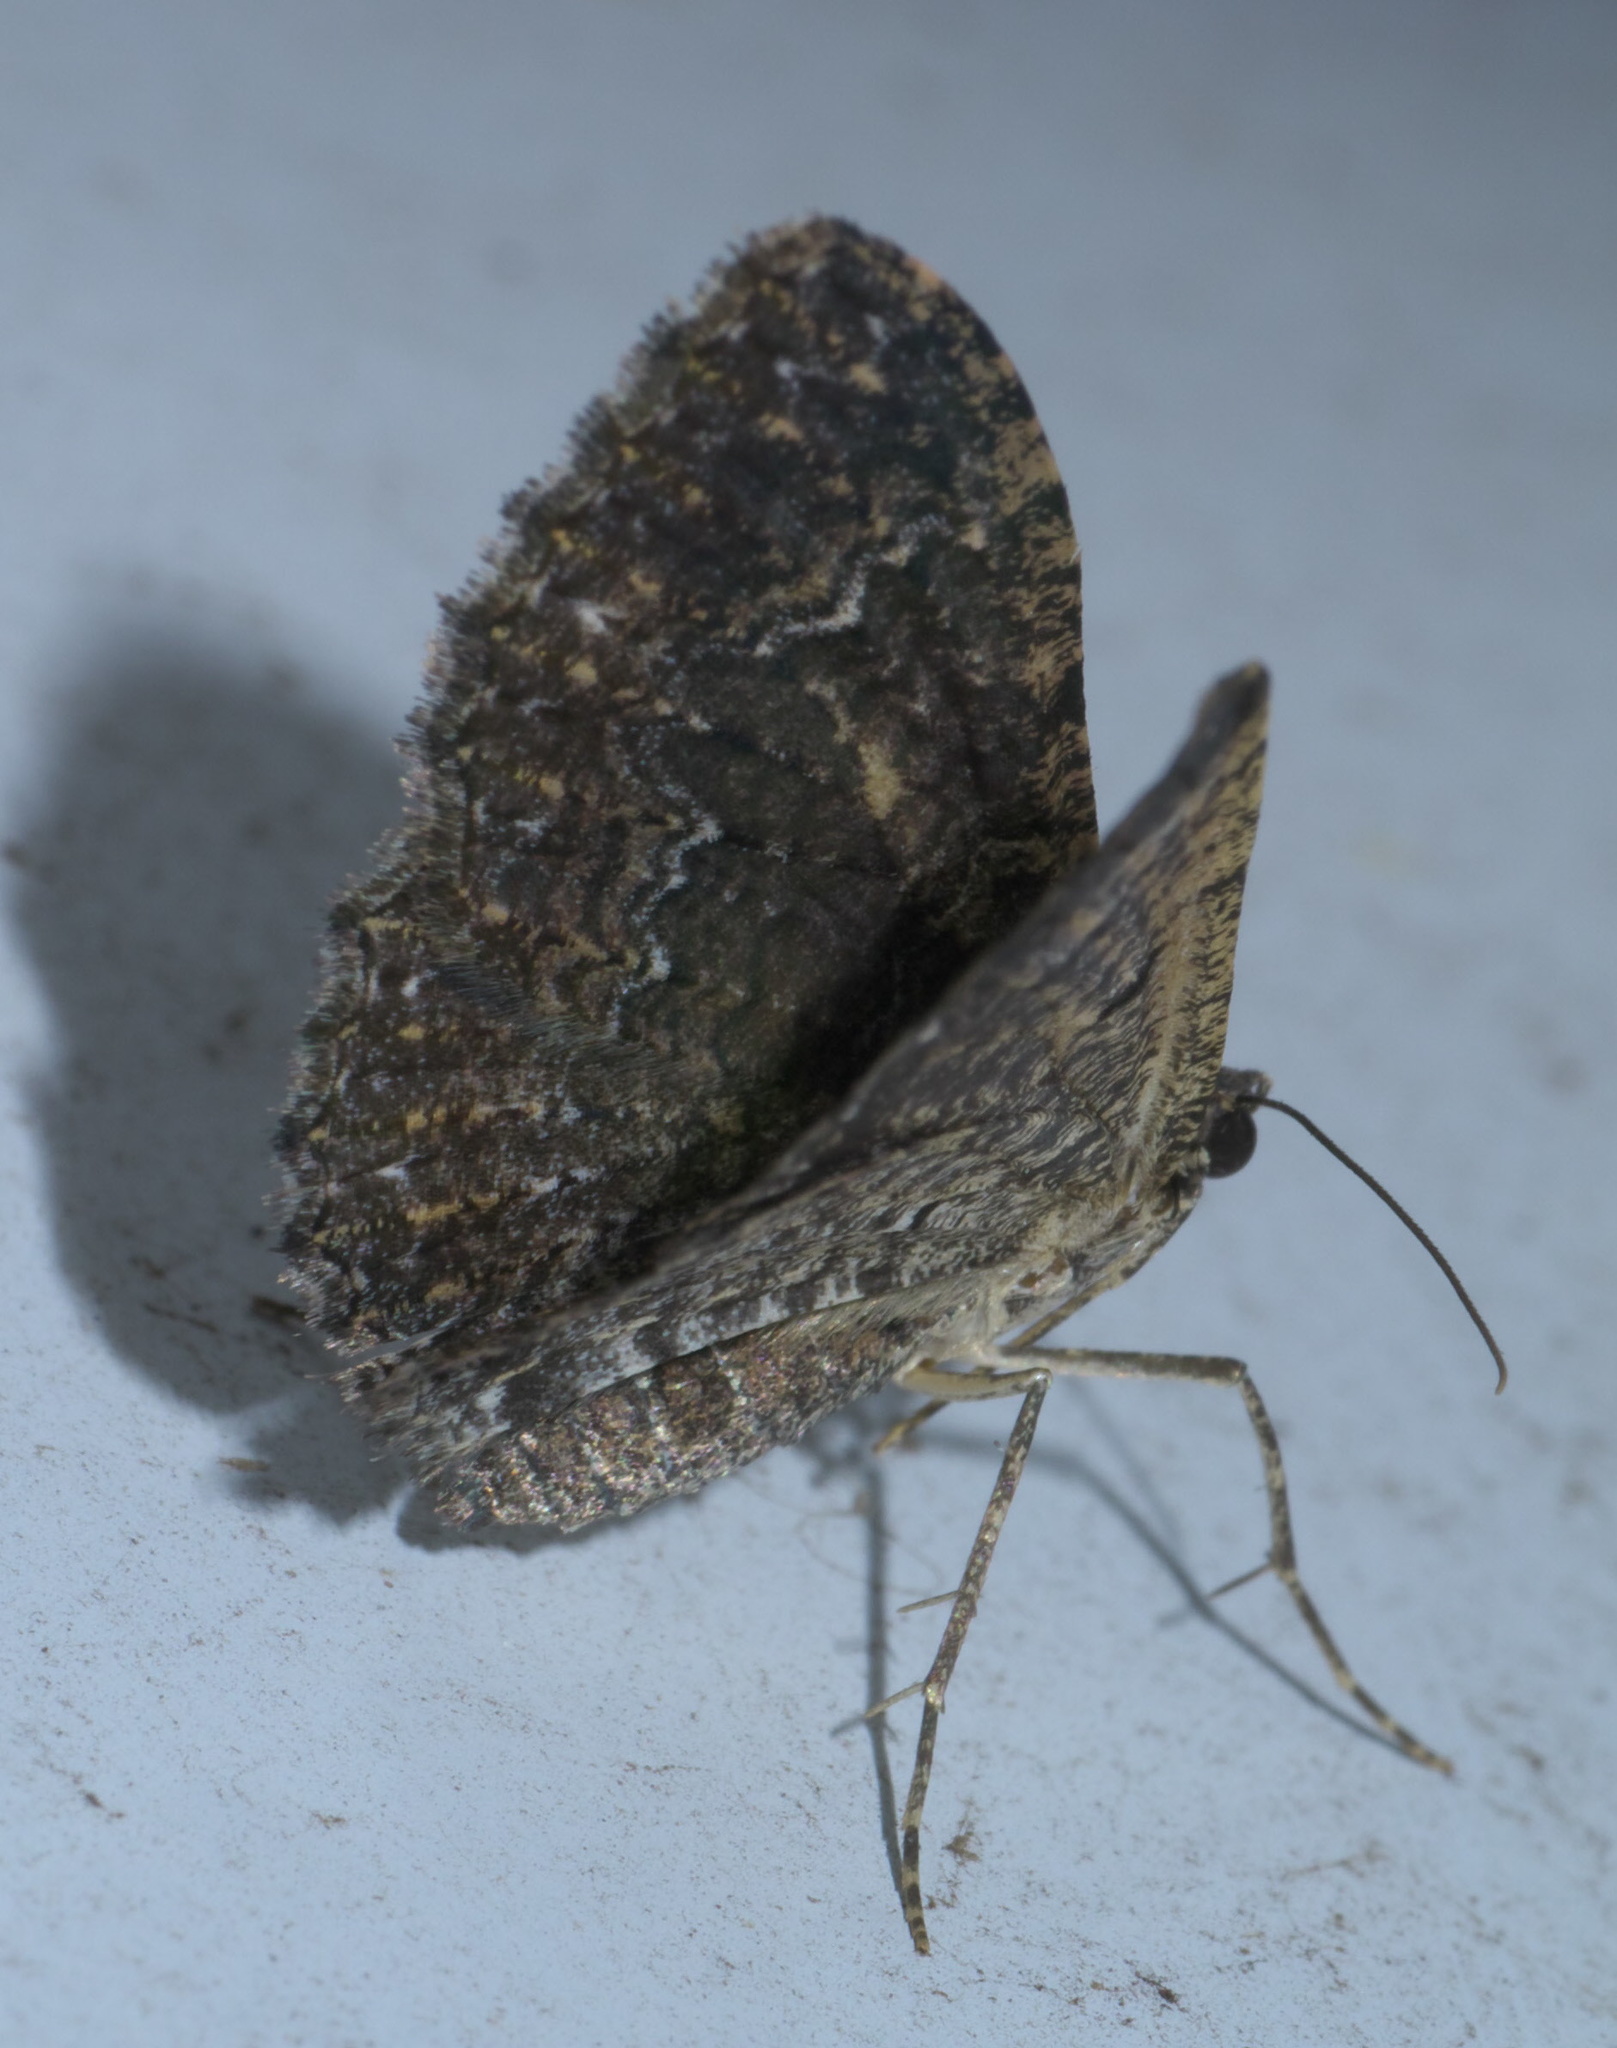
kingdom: Animalia
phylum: Arthropoda
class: Insecta
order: Lepidoptera
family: Geometridae
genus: Disclisioprocta
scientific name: Disclisioprocta stellata
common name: Somber carpet
